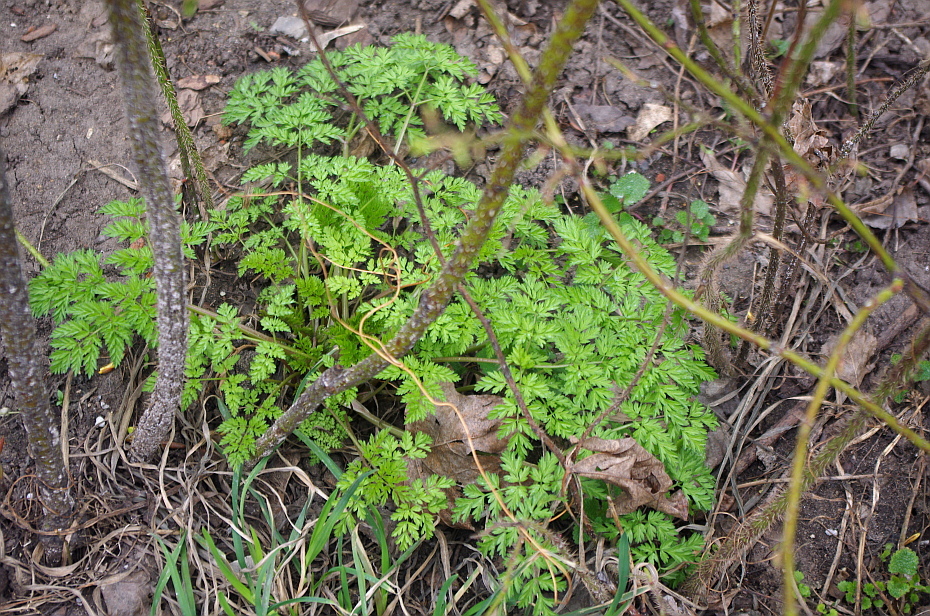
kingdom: Plantae
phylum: Tracheophyta
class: Magnoliopsida
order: Apiales
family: Apiaceae
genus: Anthriscus
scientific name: Anthriscus sylvestris
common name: Cow parsley
